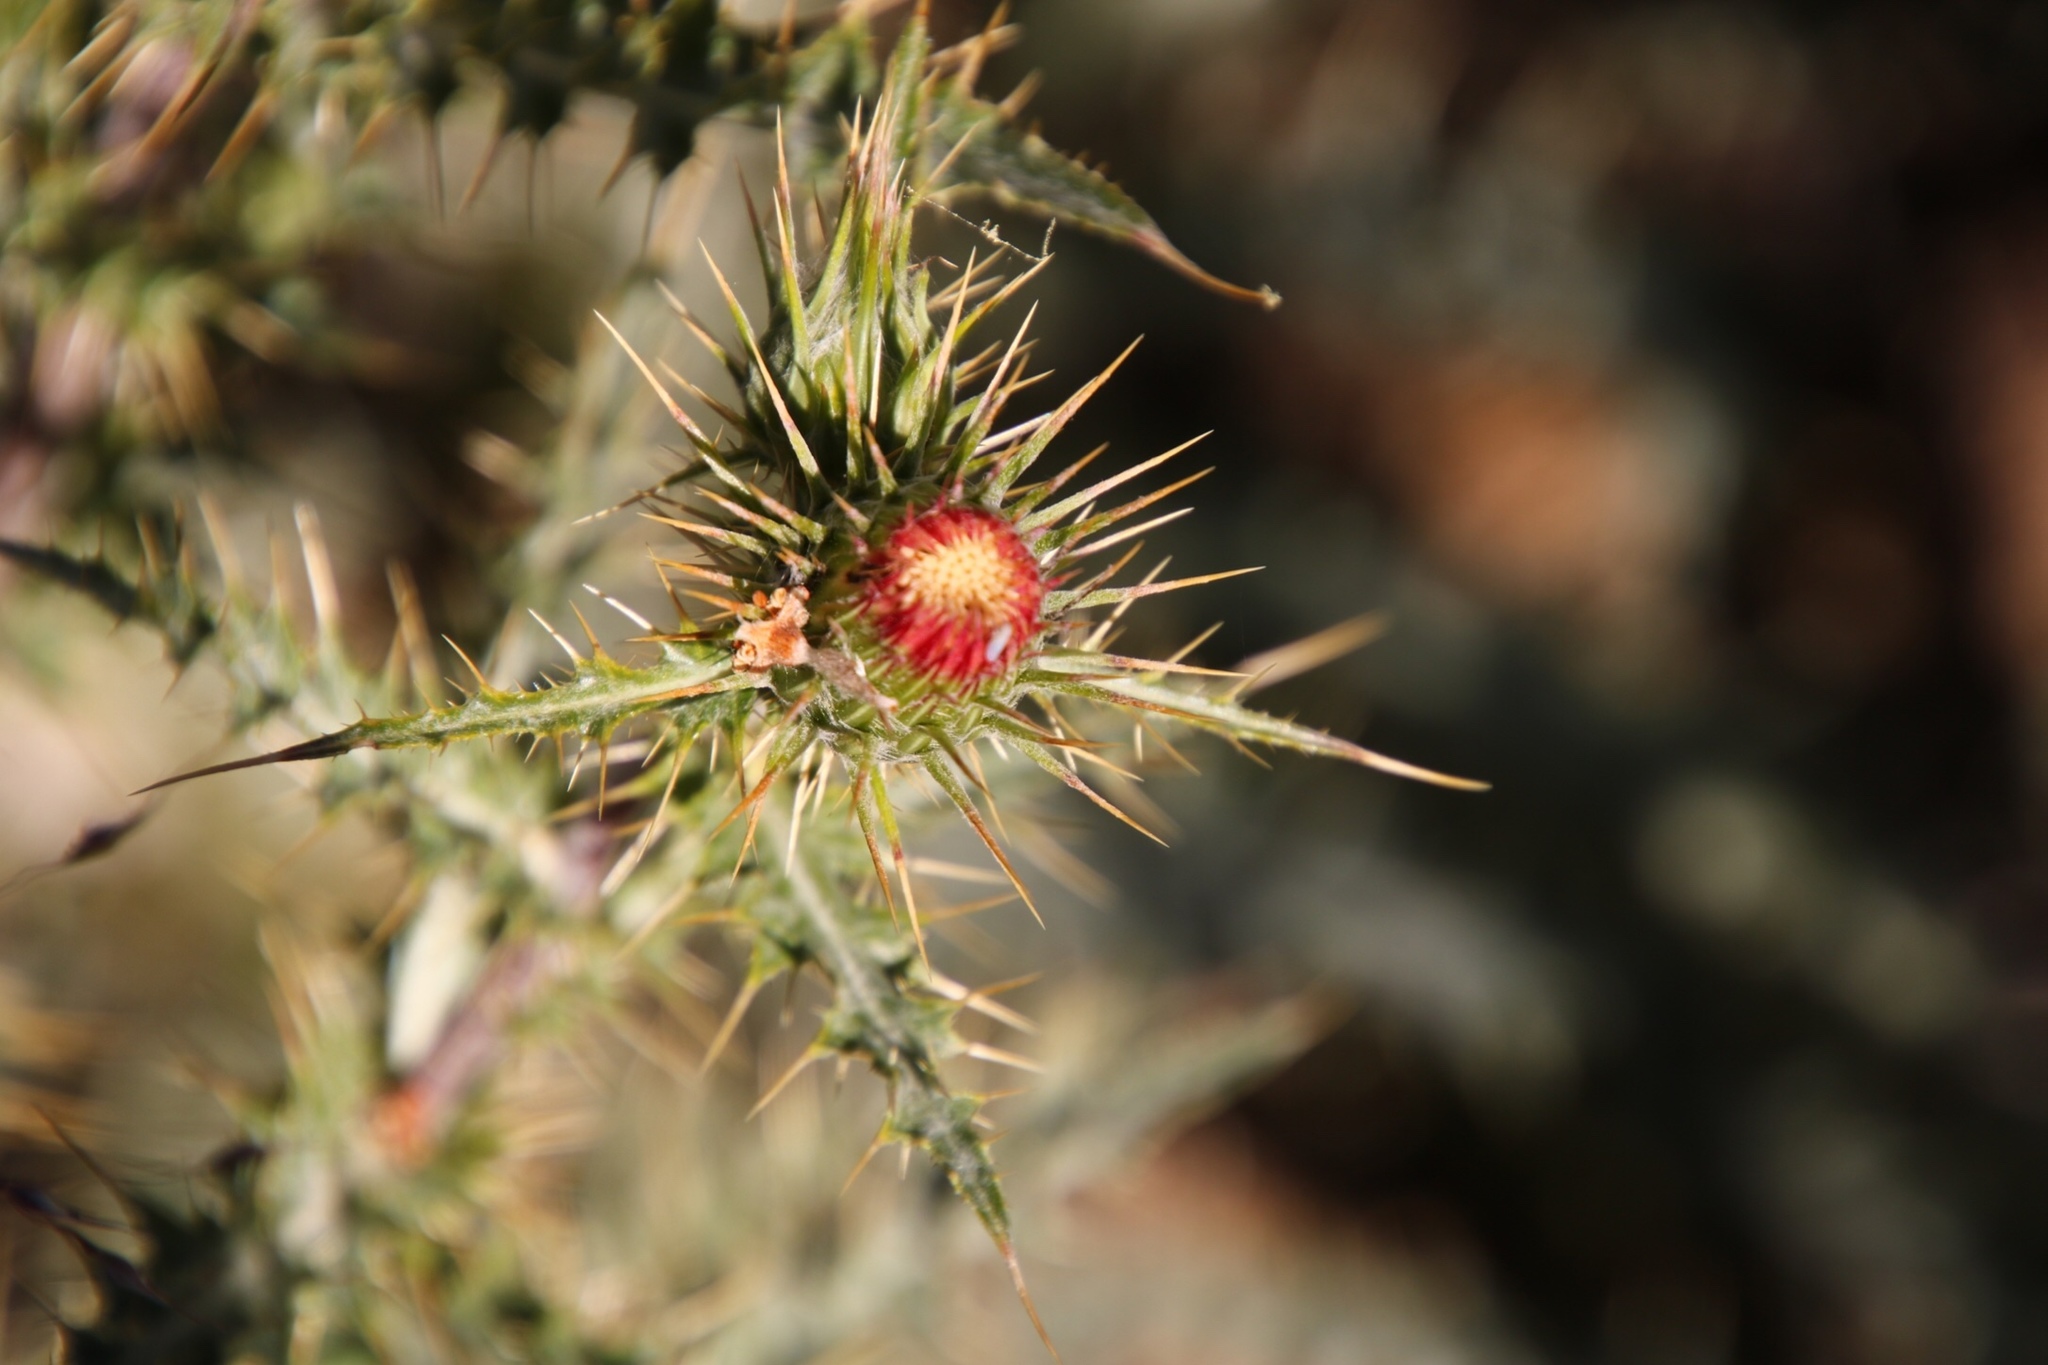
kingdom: Plantae
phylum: Tracheophyta
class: Magnoliopsida
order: Asterales
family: Asteraceae
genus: Cirsium
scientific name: Cirsium arizonicum
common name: Arizona thistle
